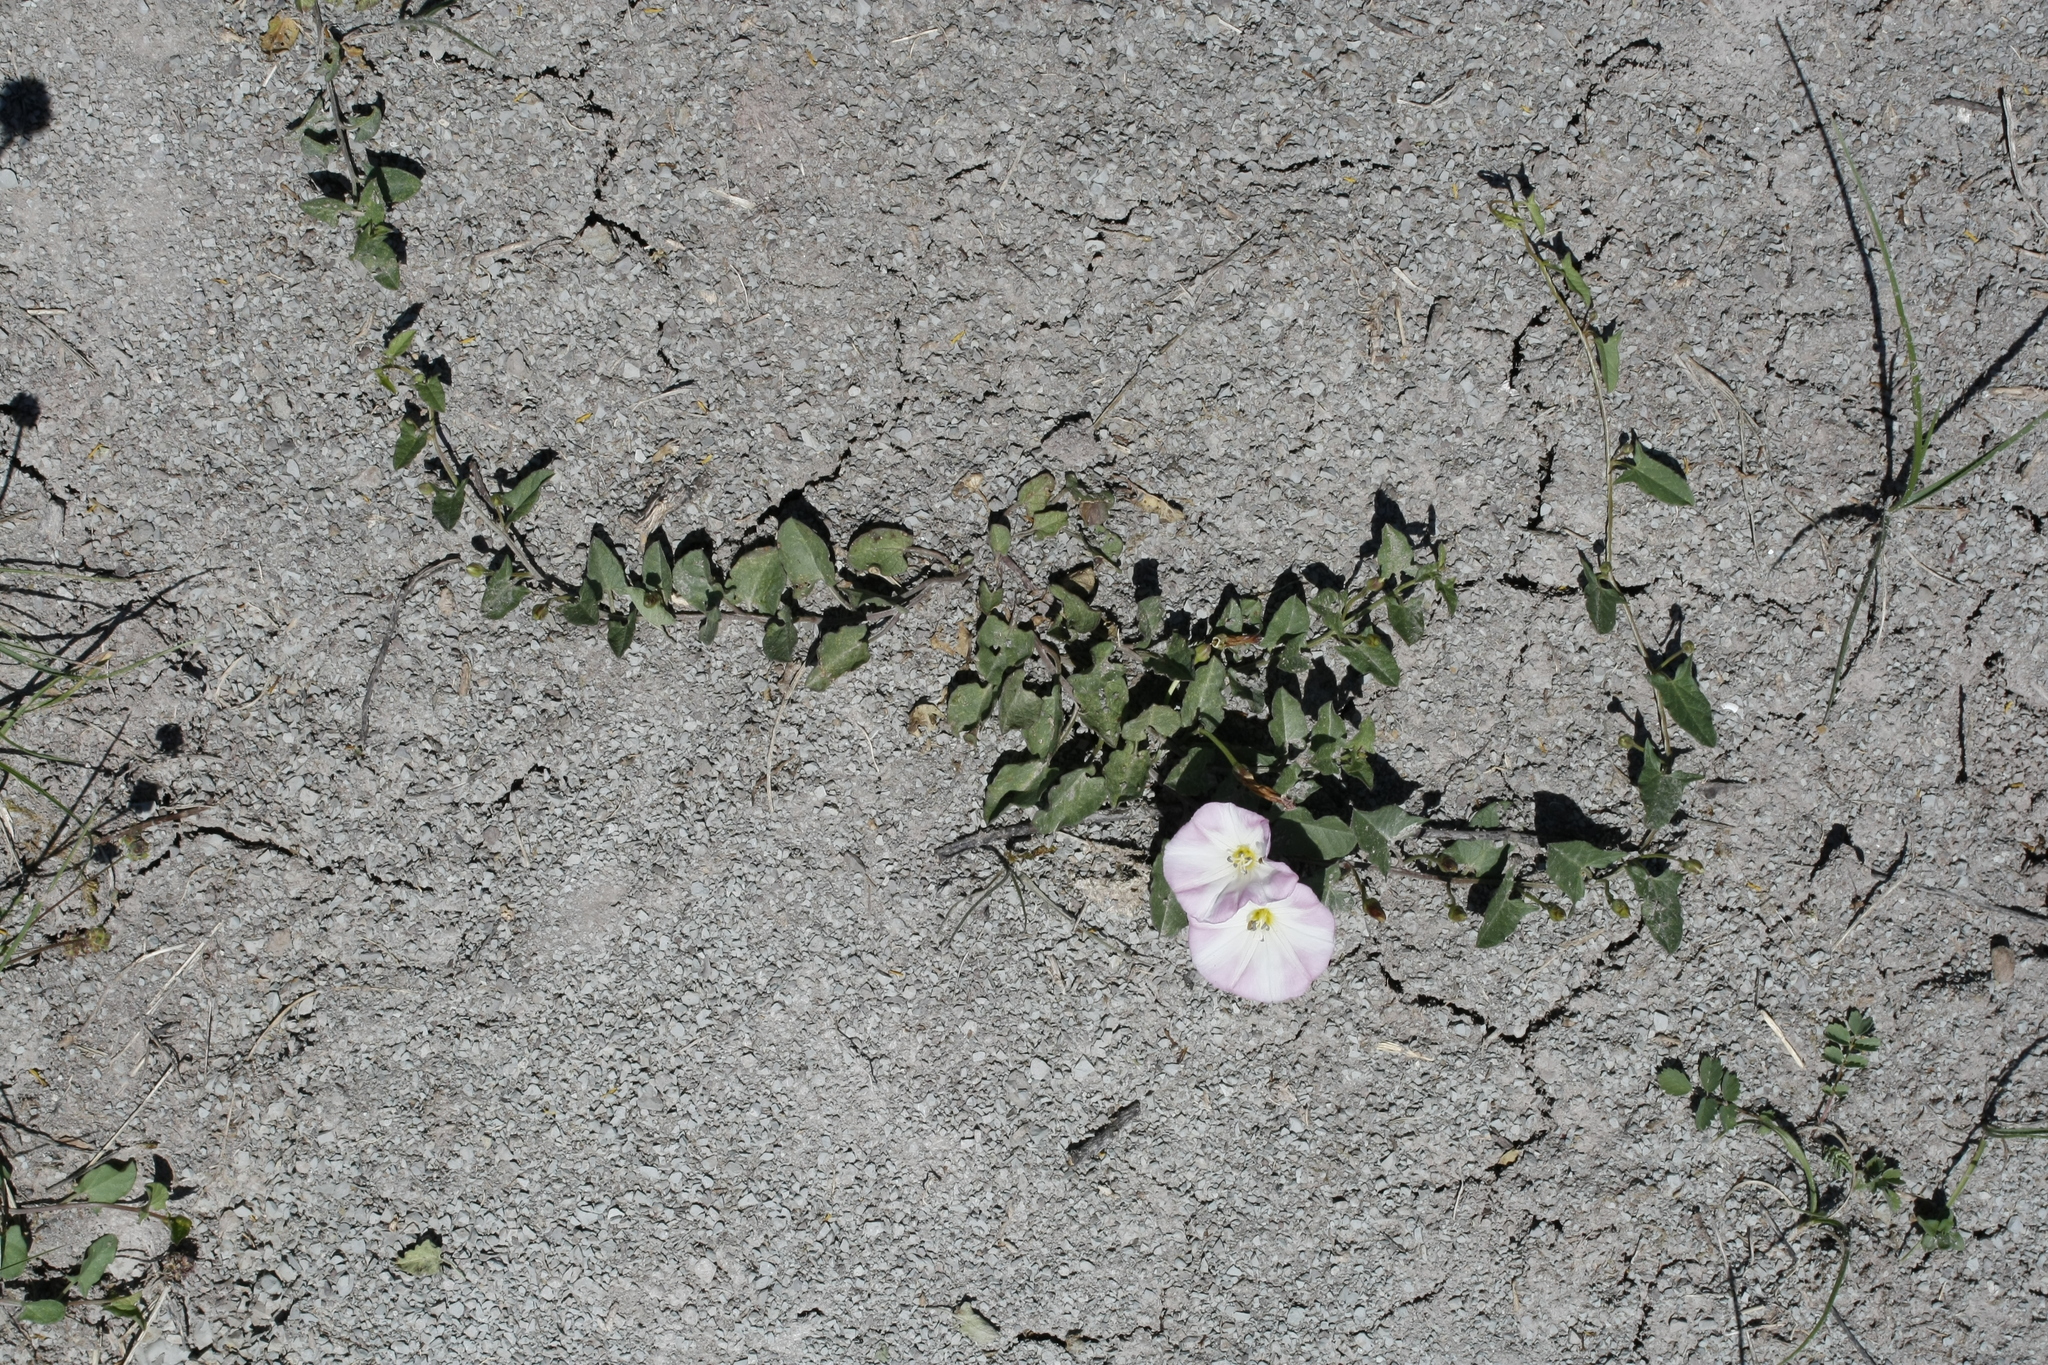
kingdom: Plantae
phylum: Tracheophyta
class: Magnoliopsida
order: Solanales
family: Convolvulaceae
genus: Convolvulus
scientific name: Convolvulus arvensis
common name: Field bindweed
